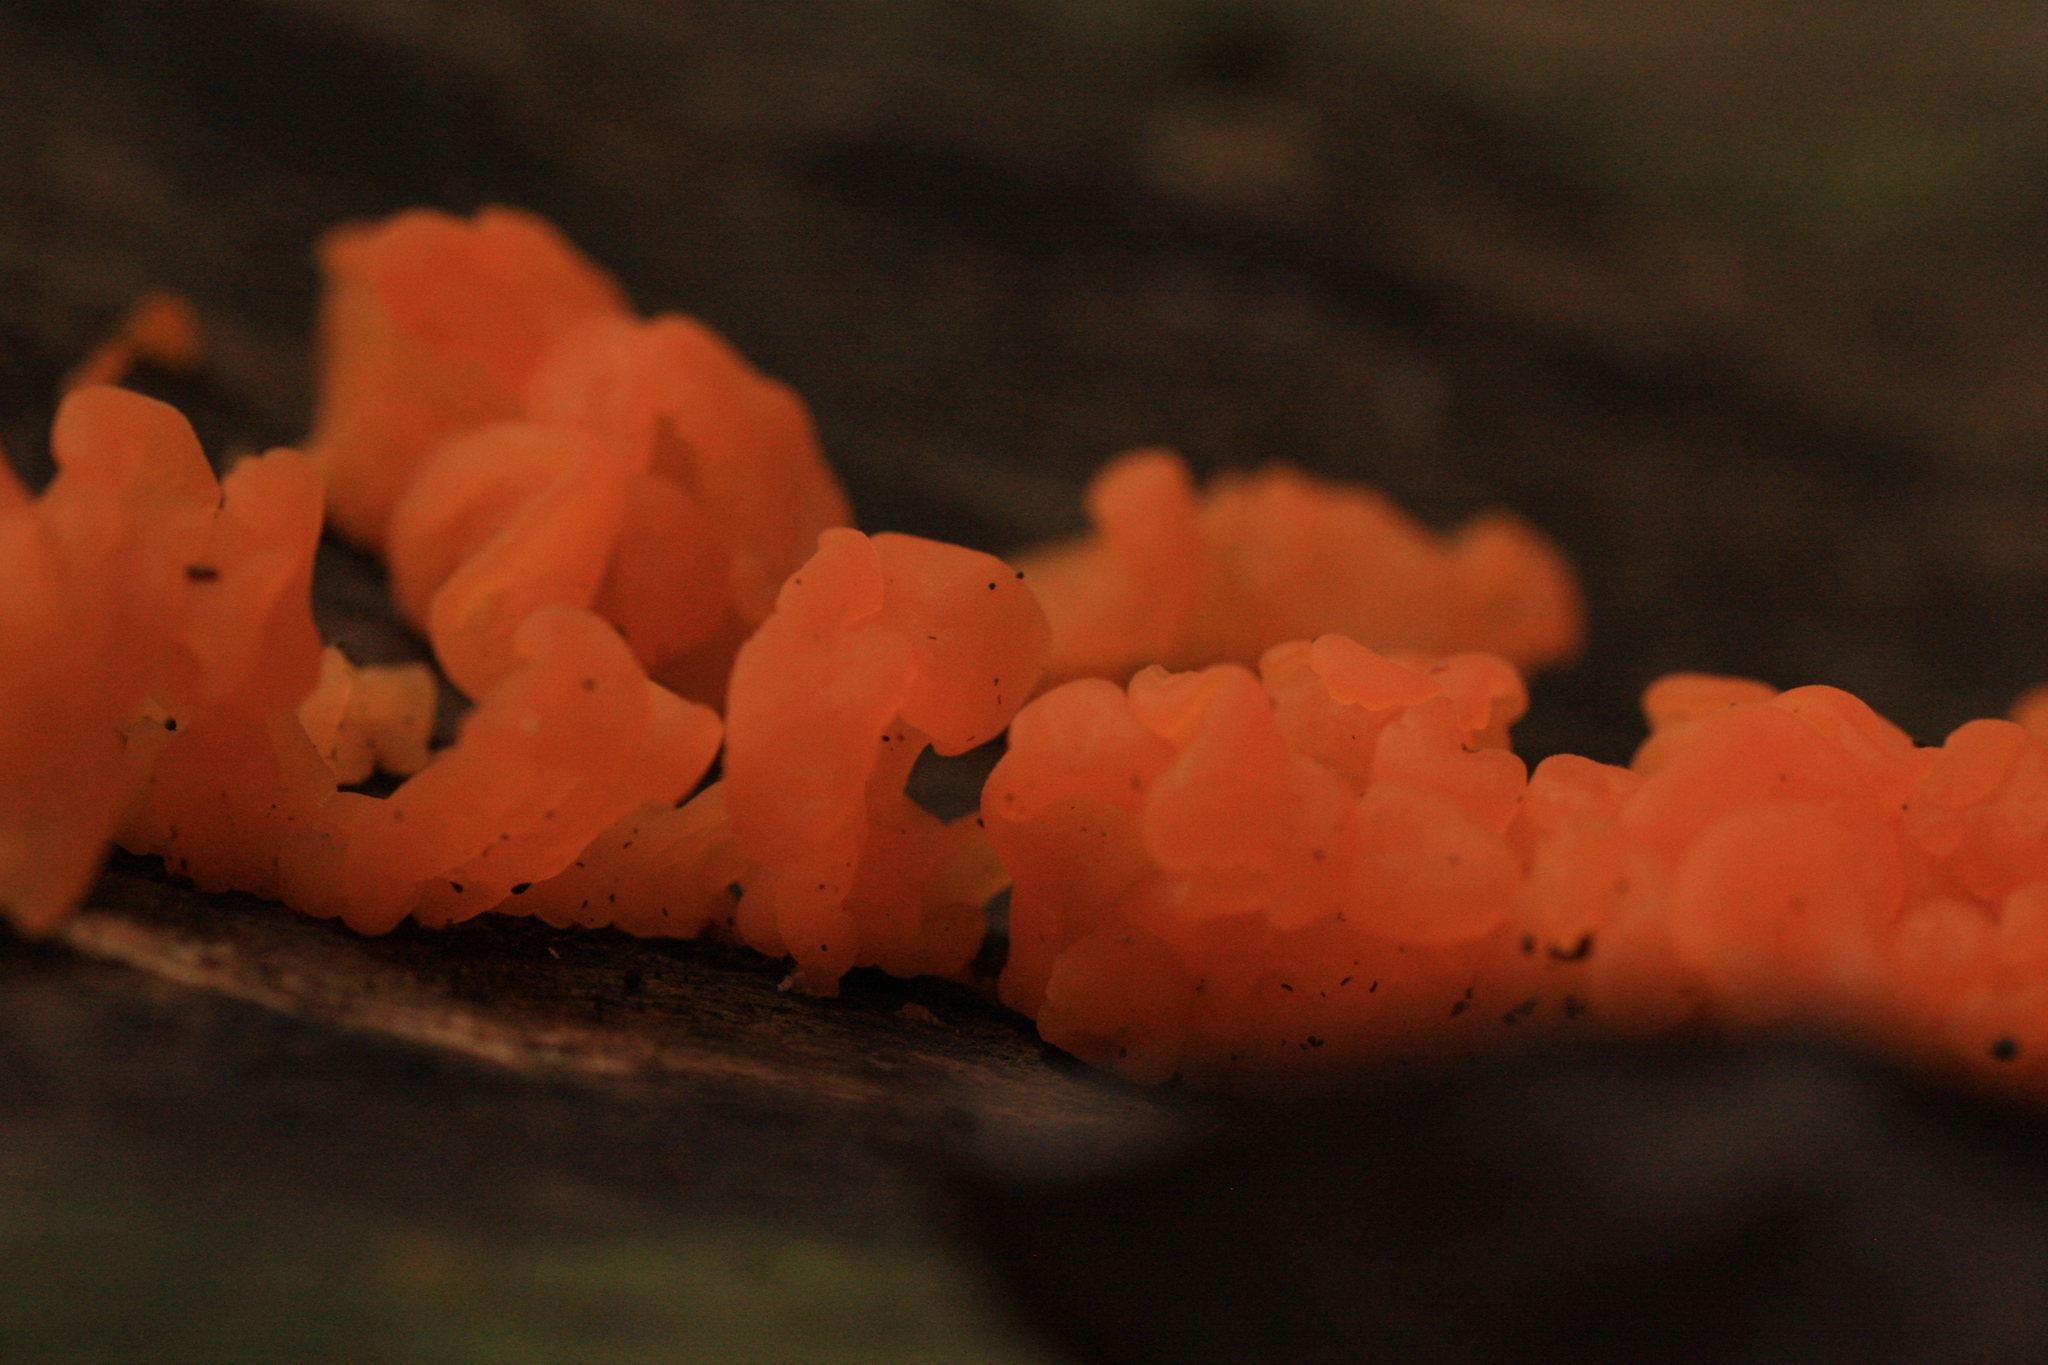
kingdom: Fungi
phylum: Basidiomycota
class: Dacrymycetes
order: Dacrymycetales
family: Dacrymycetaceae
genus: Dacrymyces
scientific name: Dacrymyces spathularius
